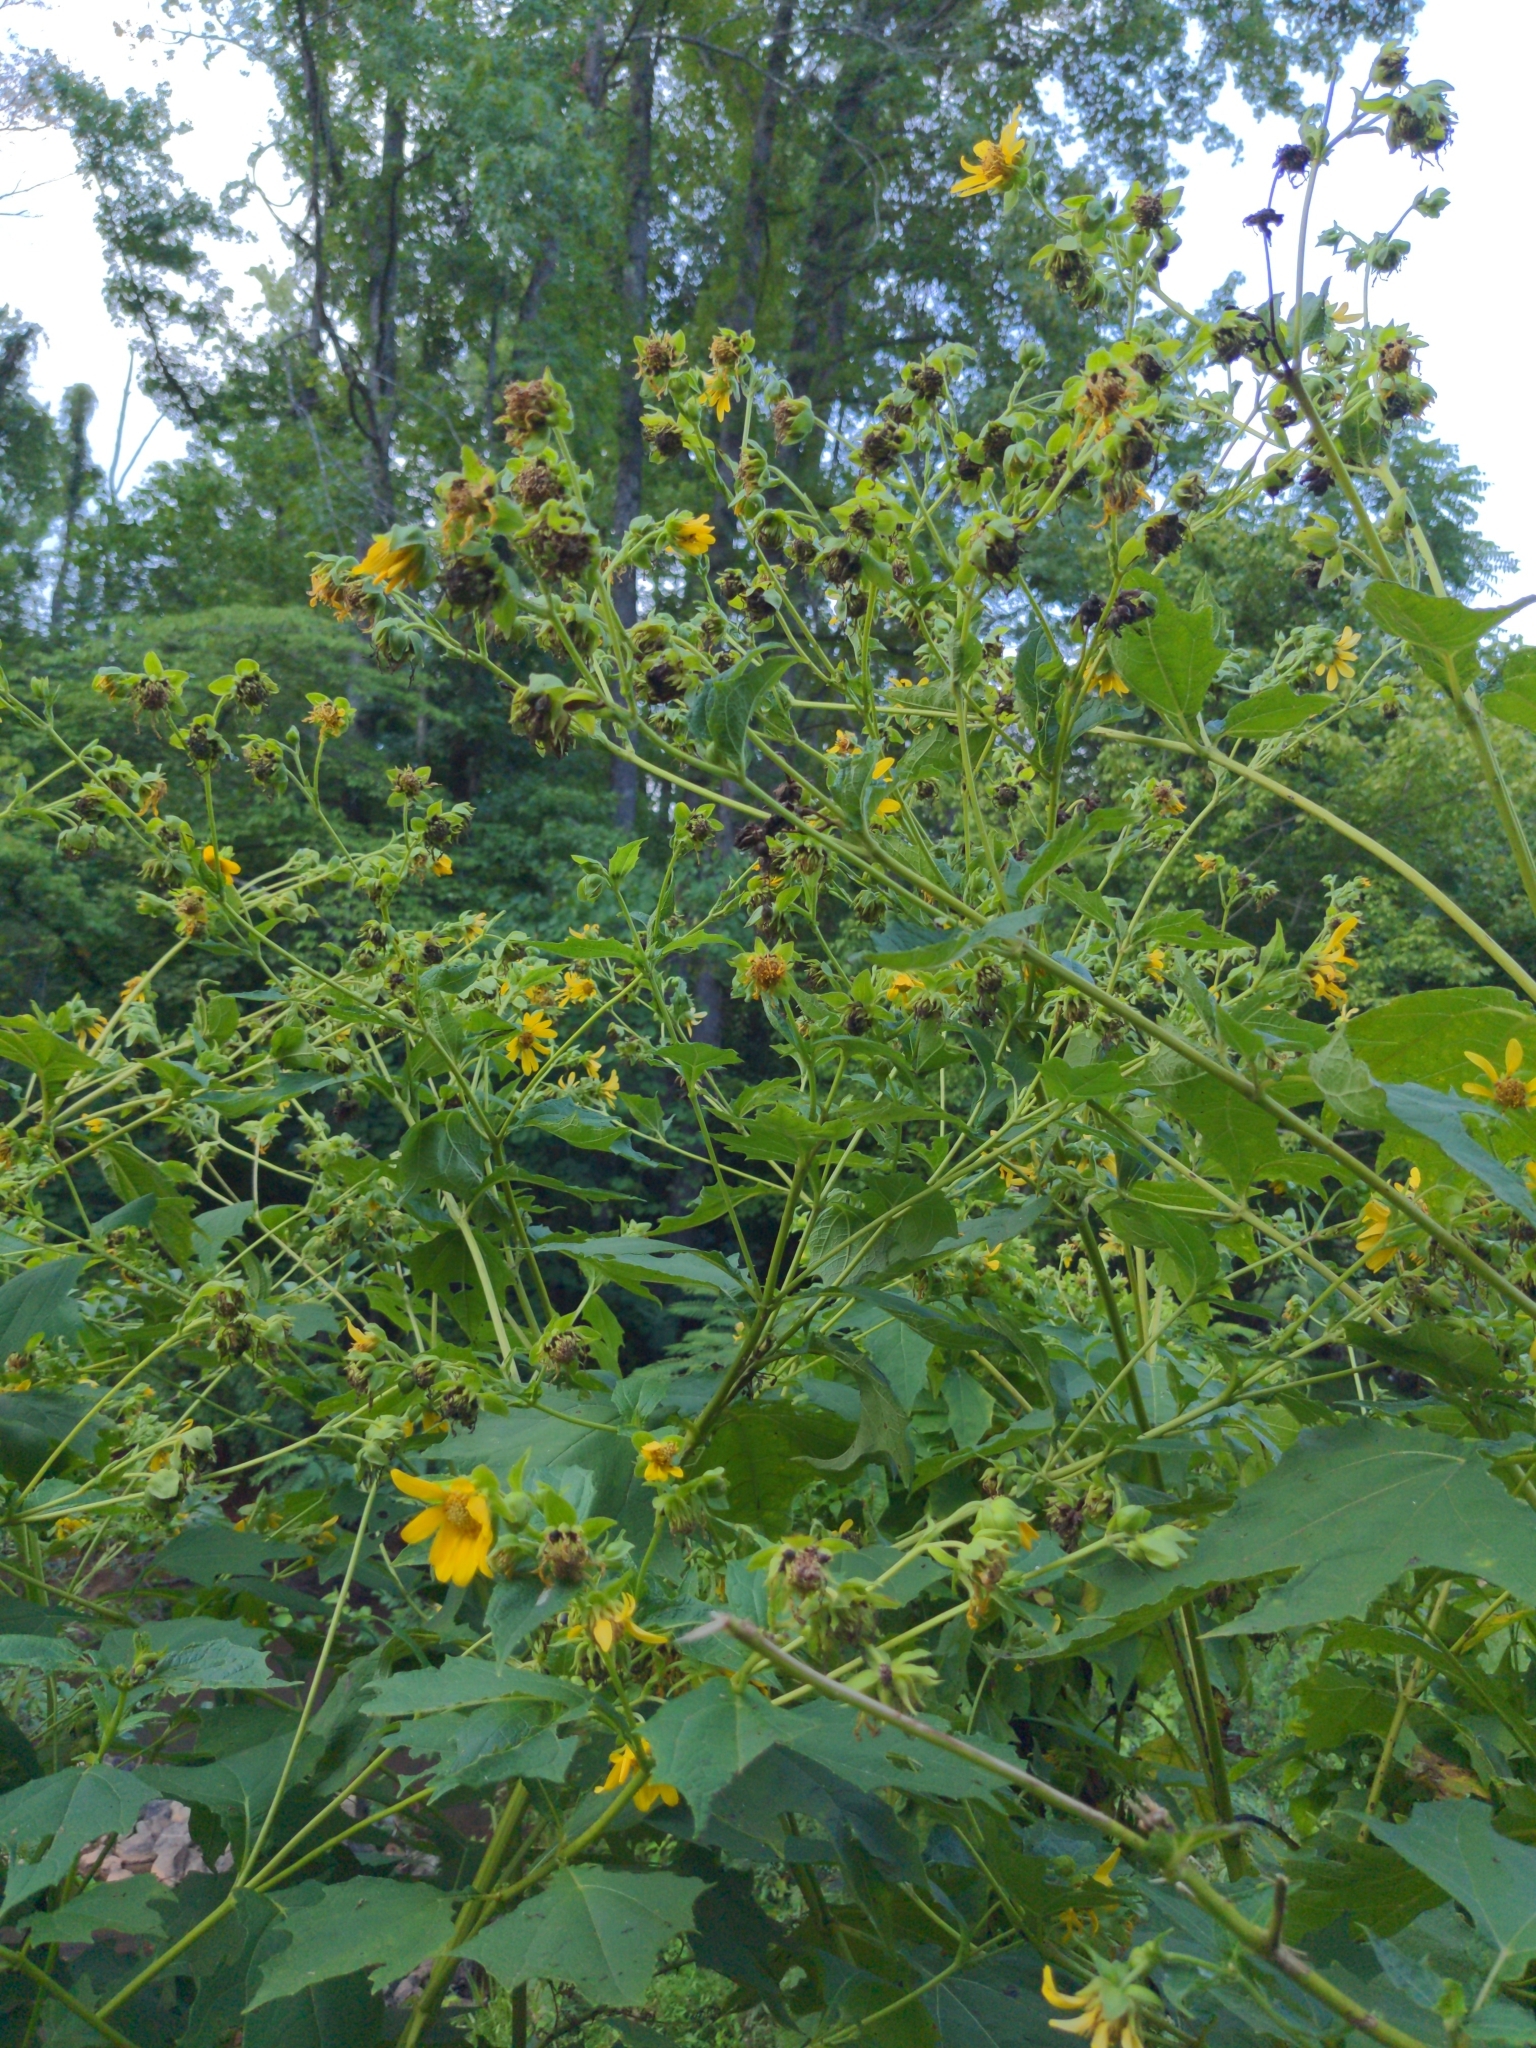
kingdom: Plantae
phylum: Tracheophyta
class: Magnoliopsida
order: Asterales
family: Asteraceae
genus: Smallanthus
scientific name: Smallanthus uvedalia
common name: Bear's-foot
